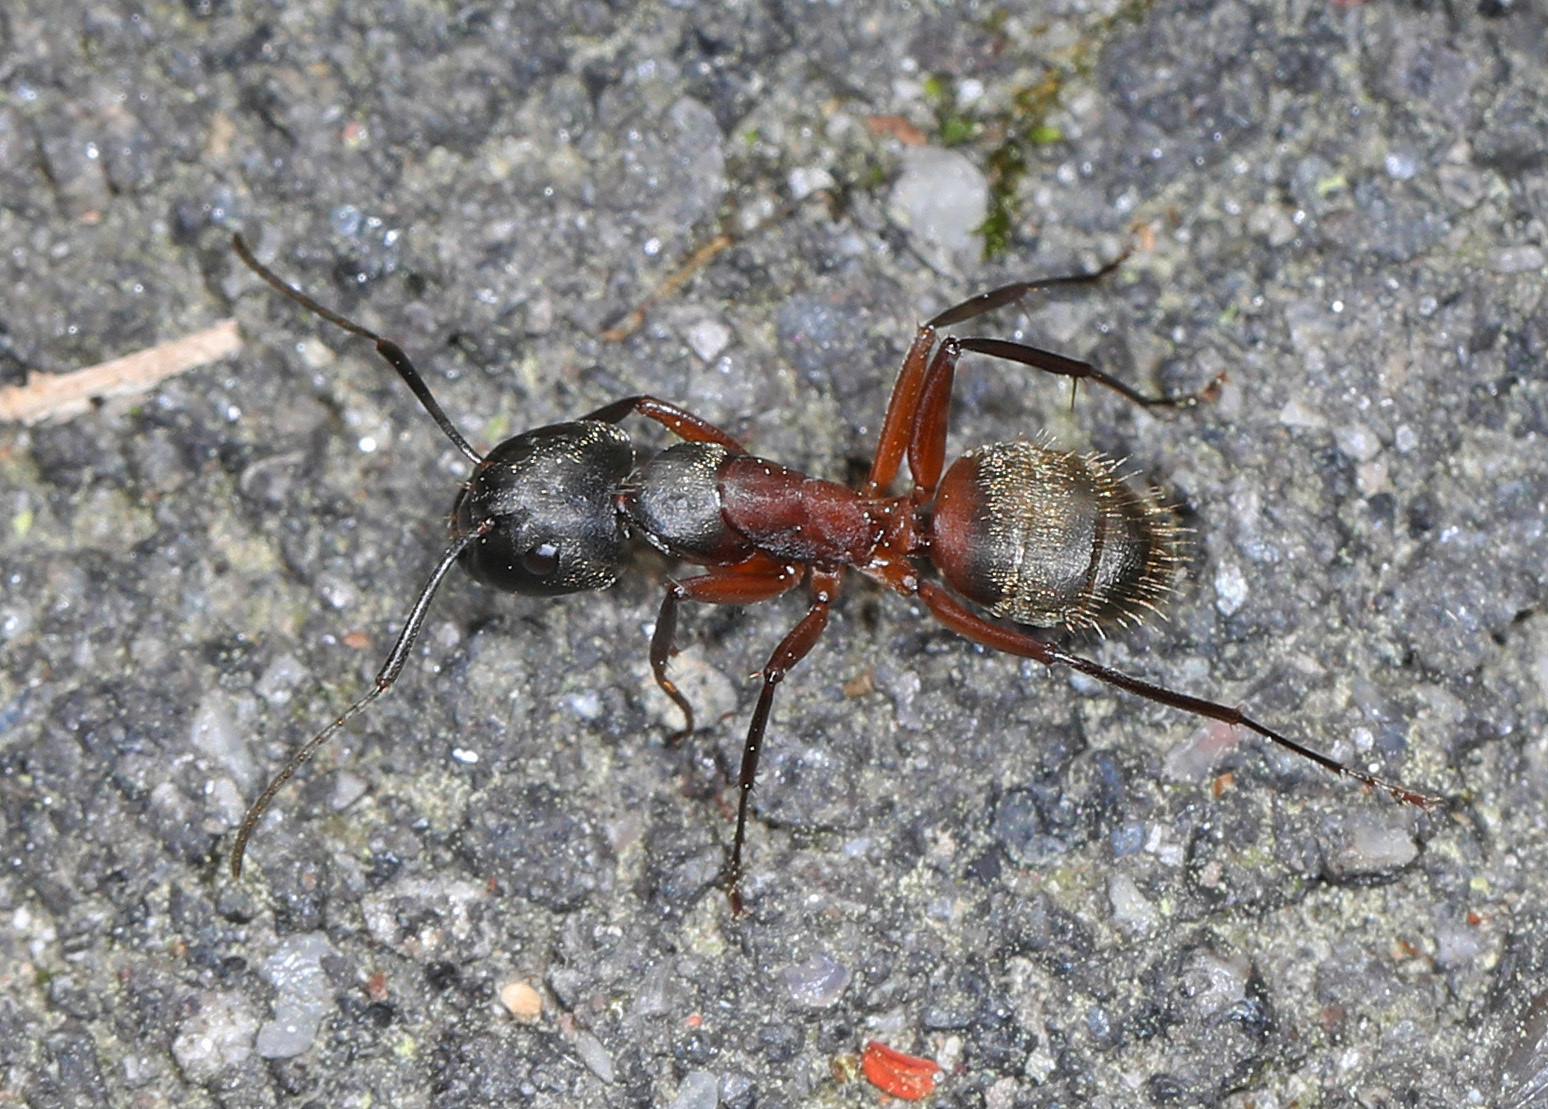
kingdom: Animalia
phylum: Arthropoda
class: Insecta
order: Hymenoptera
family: Formicidae
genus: Camponotus
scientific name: Camponotus chromaiodes
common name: Red carpenter ant
